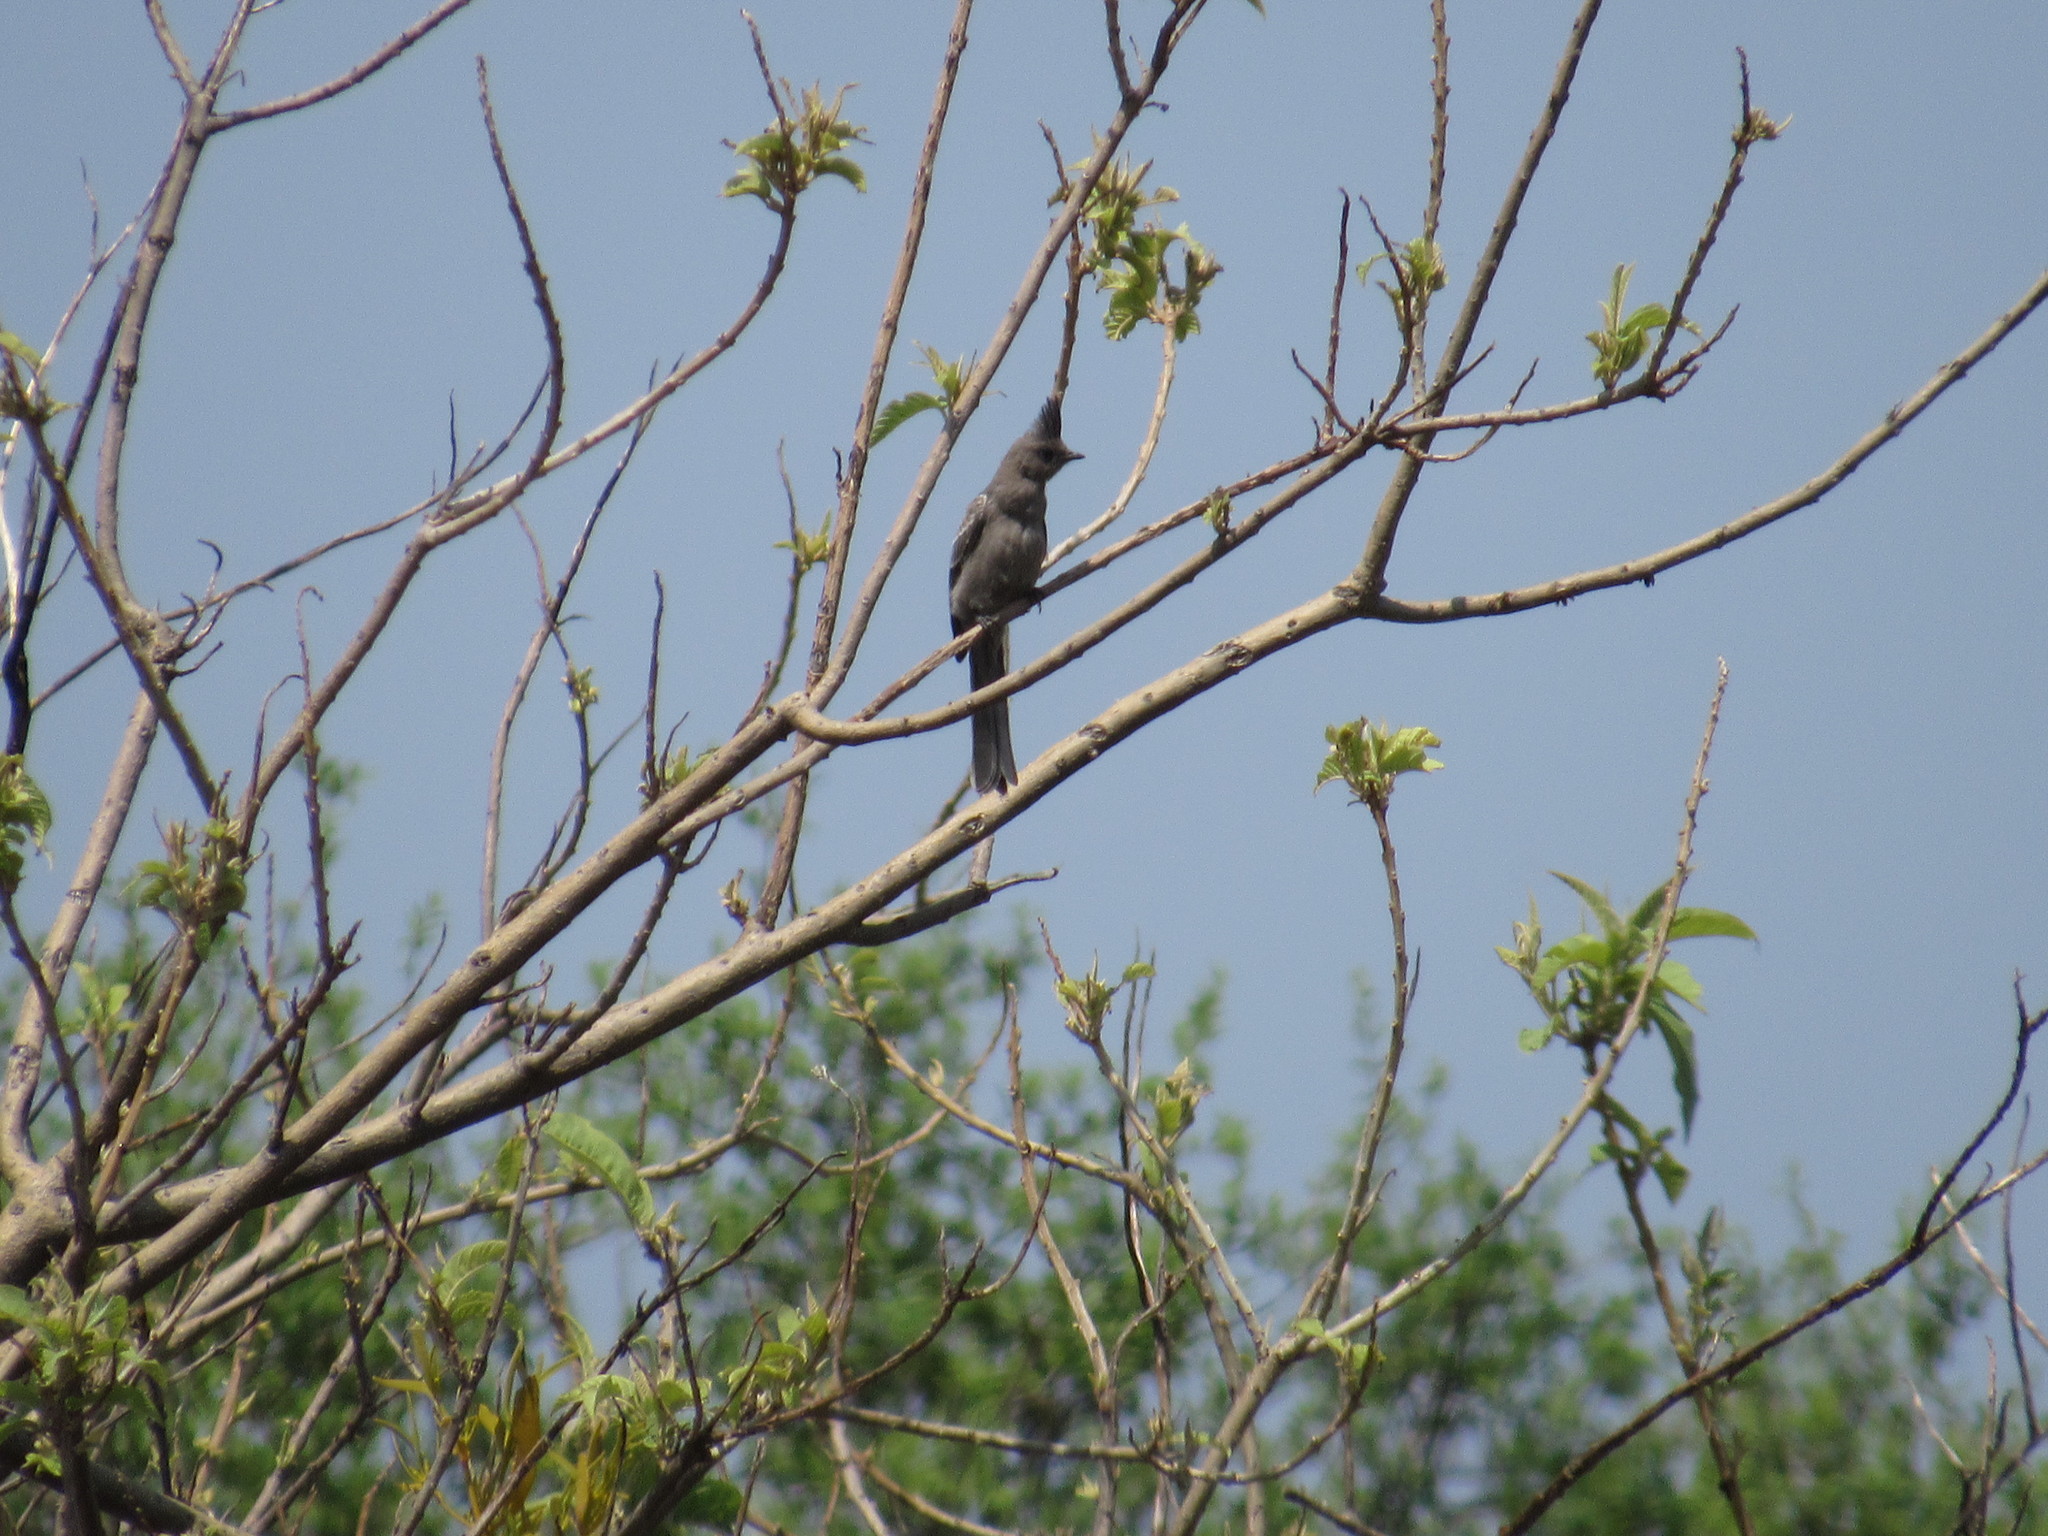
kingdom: Animalia
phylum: Chordata
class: Aves
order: Passeriformes
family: Ptilogonatidae
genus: Phainopepla
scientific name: Phainopepla nitens
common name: Phainopepla
